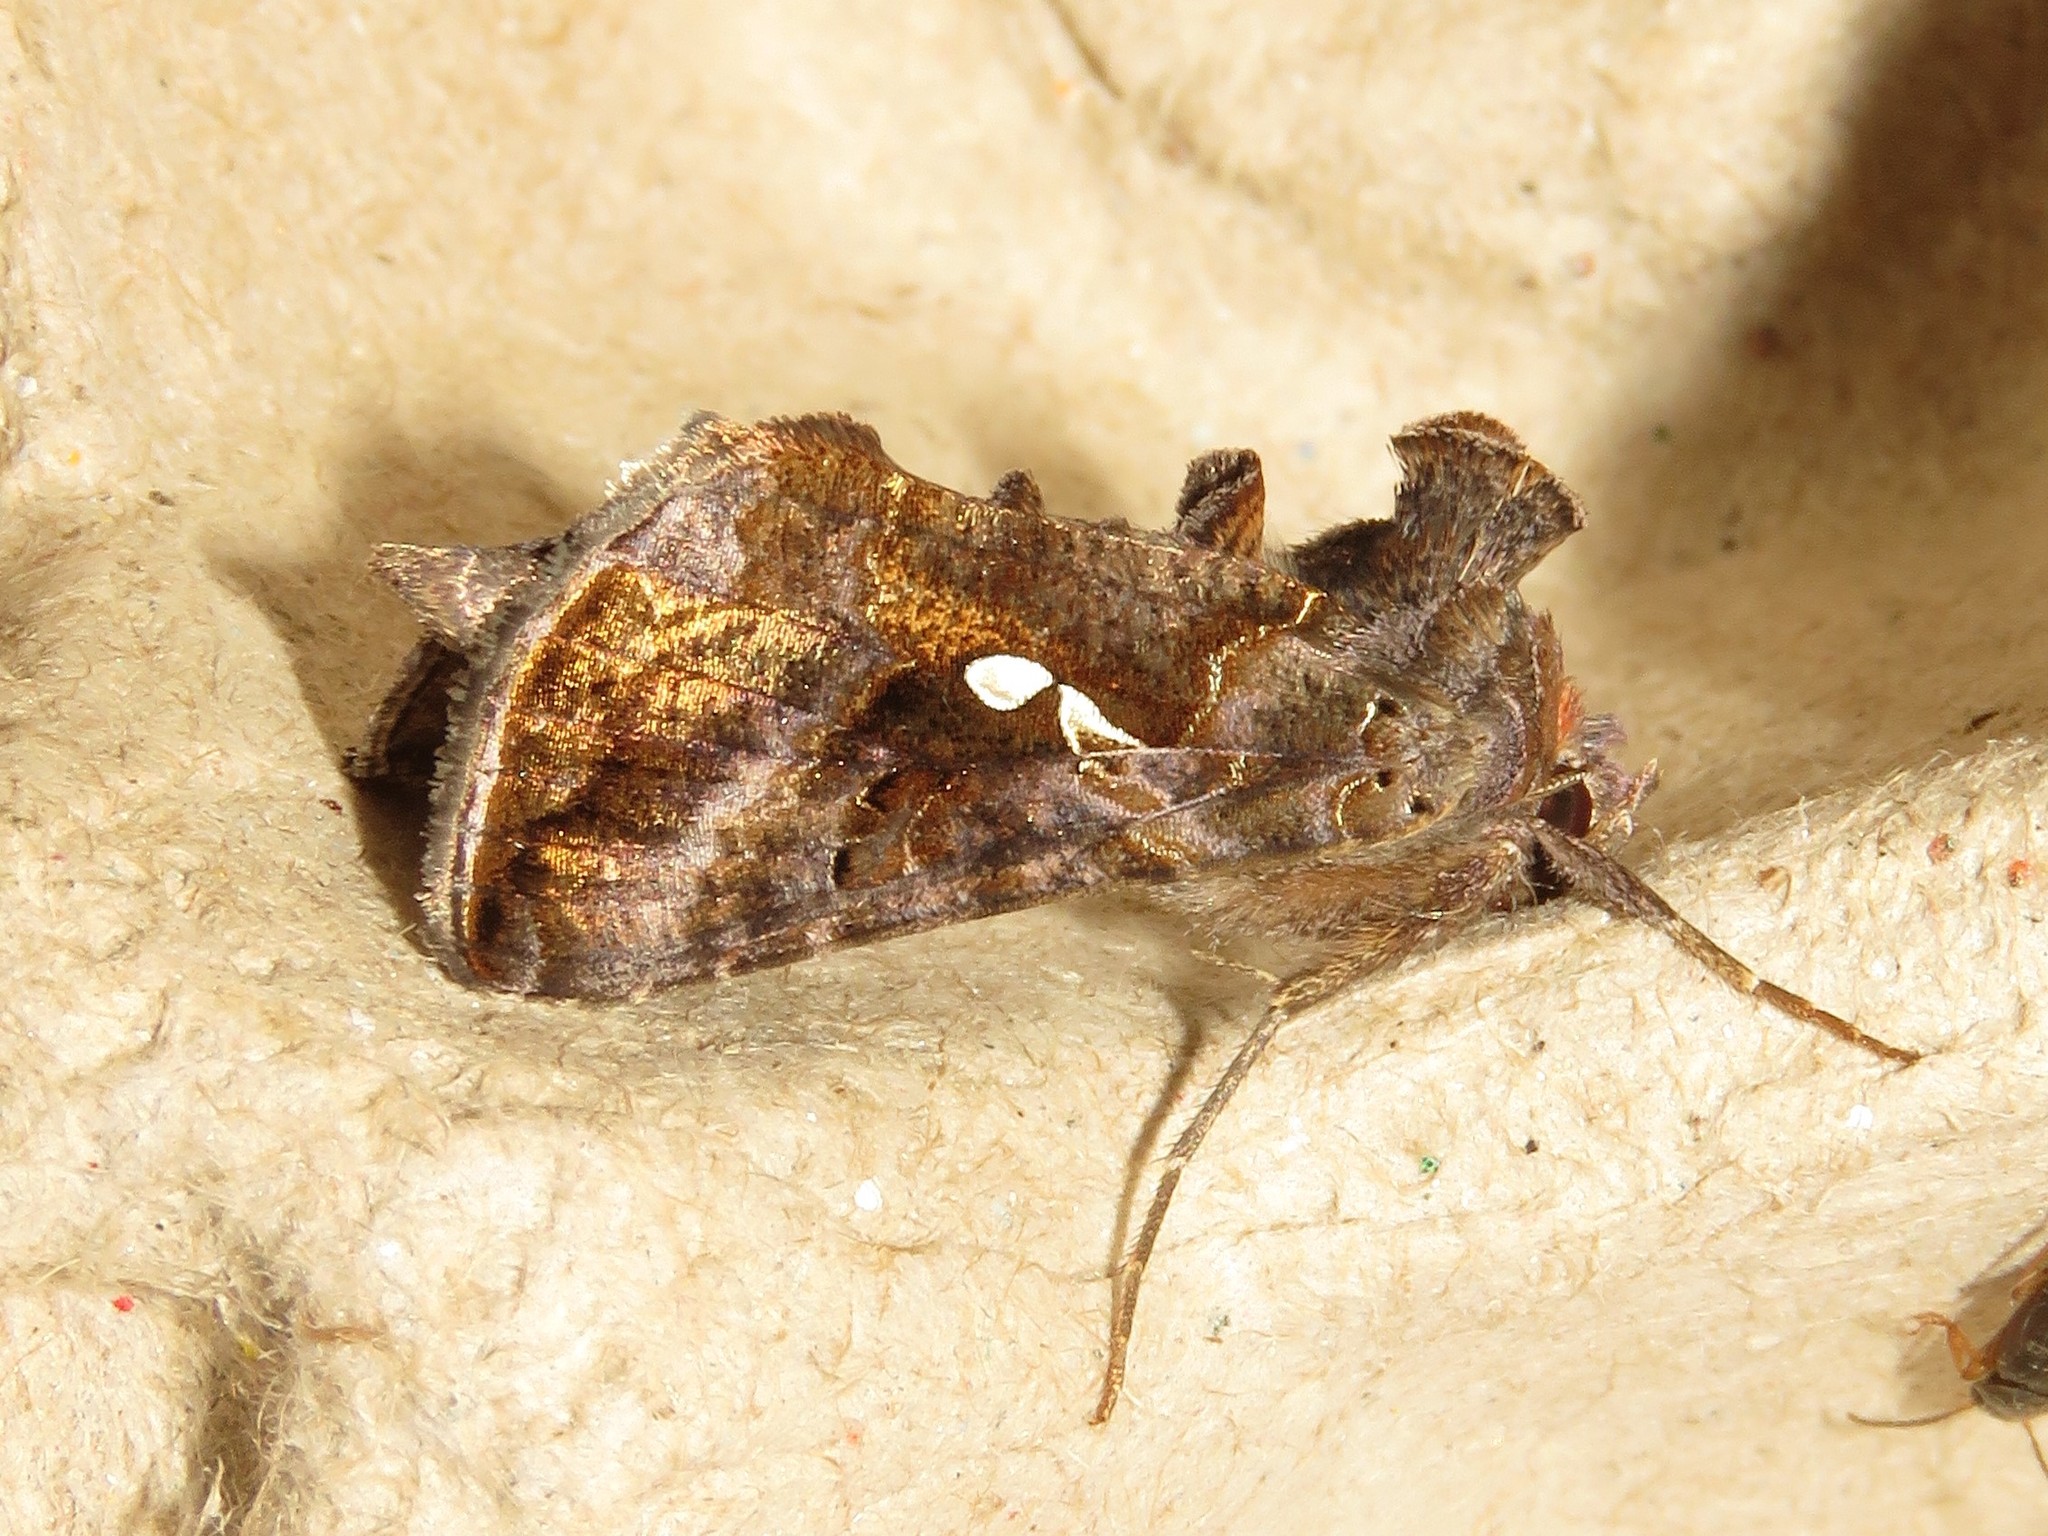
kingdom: Animalia
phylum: Arthropoda
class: Insecta
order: Lepidoptera
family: Noctuidae
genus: Autographa
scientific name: Autographa precationis
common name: Common looper moth
